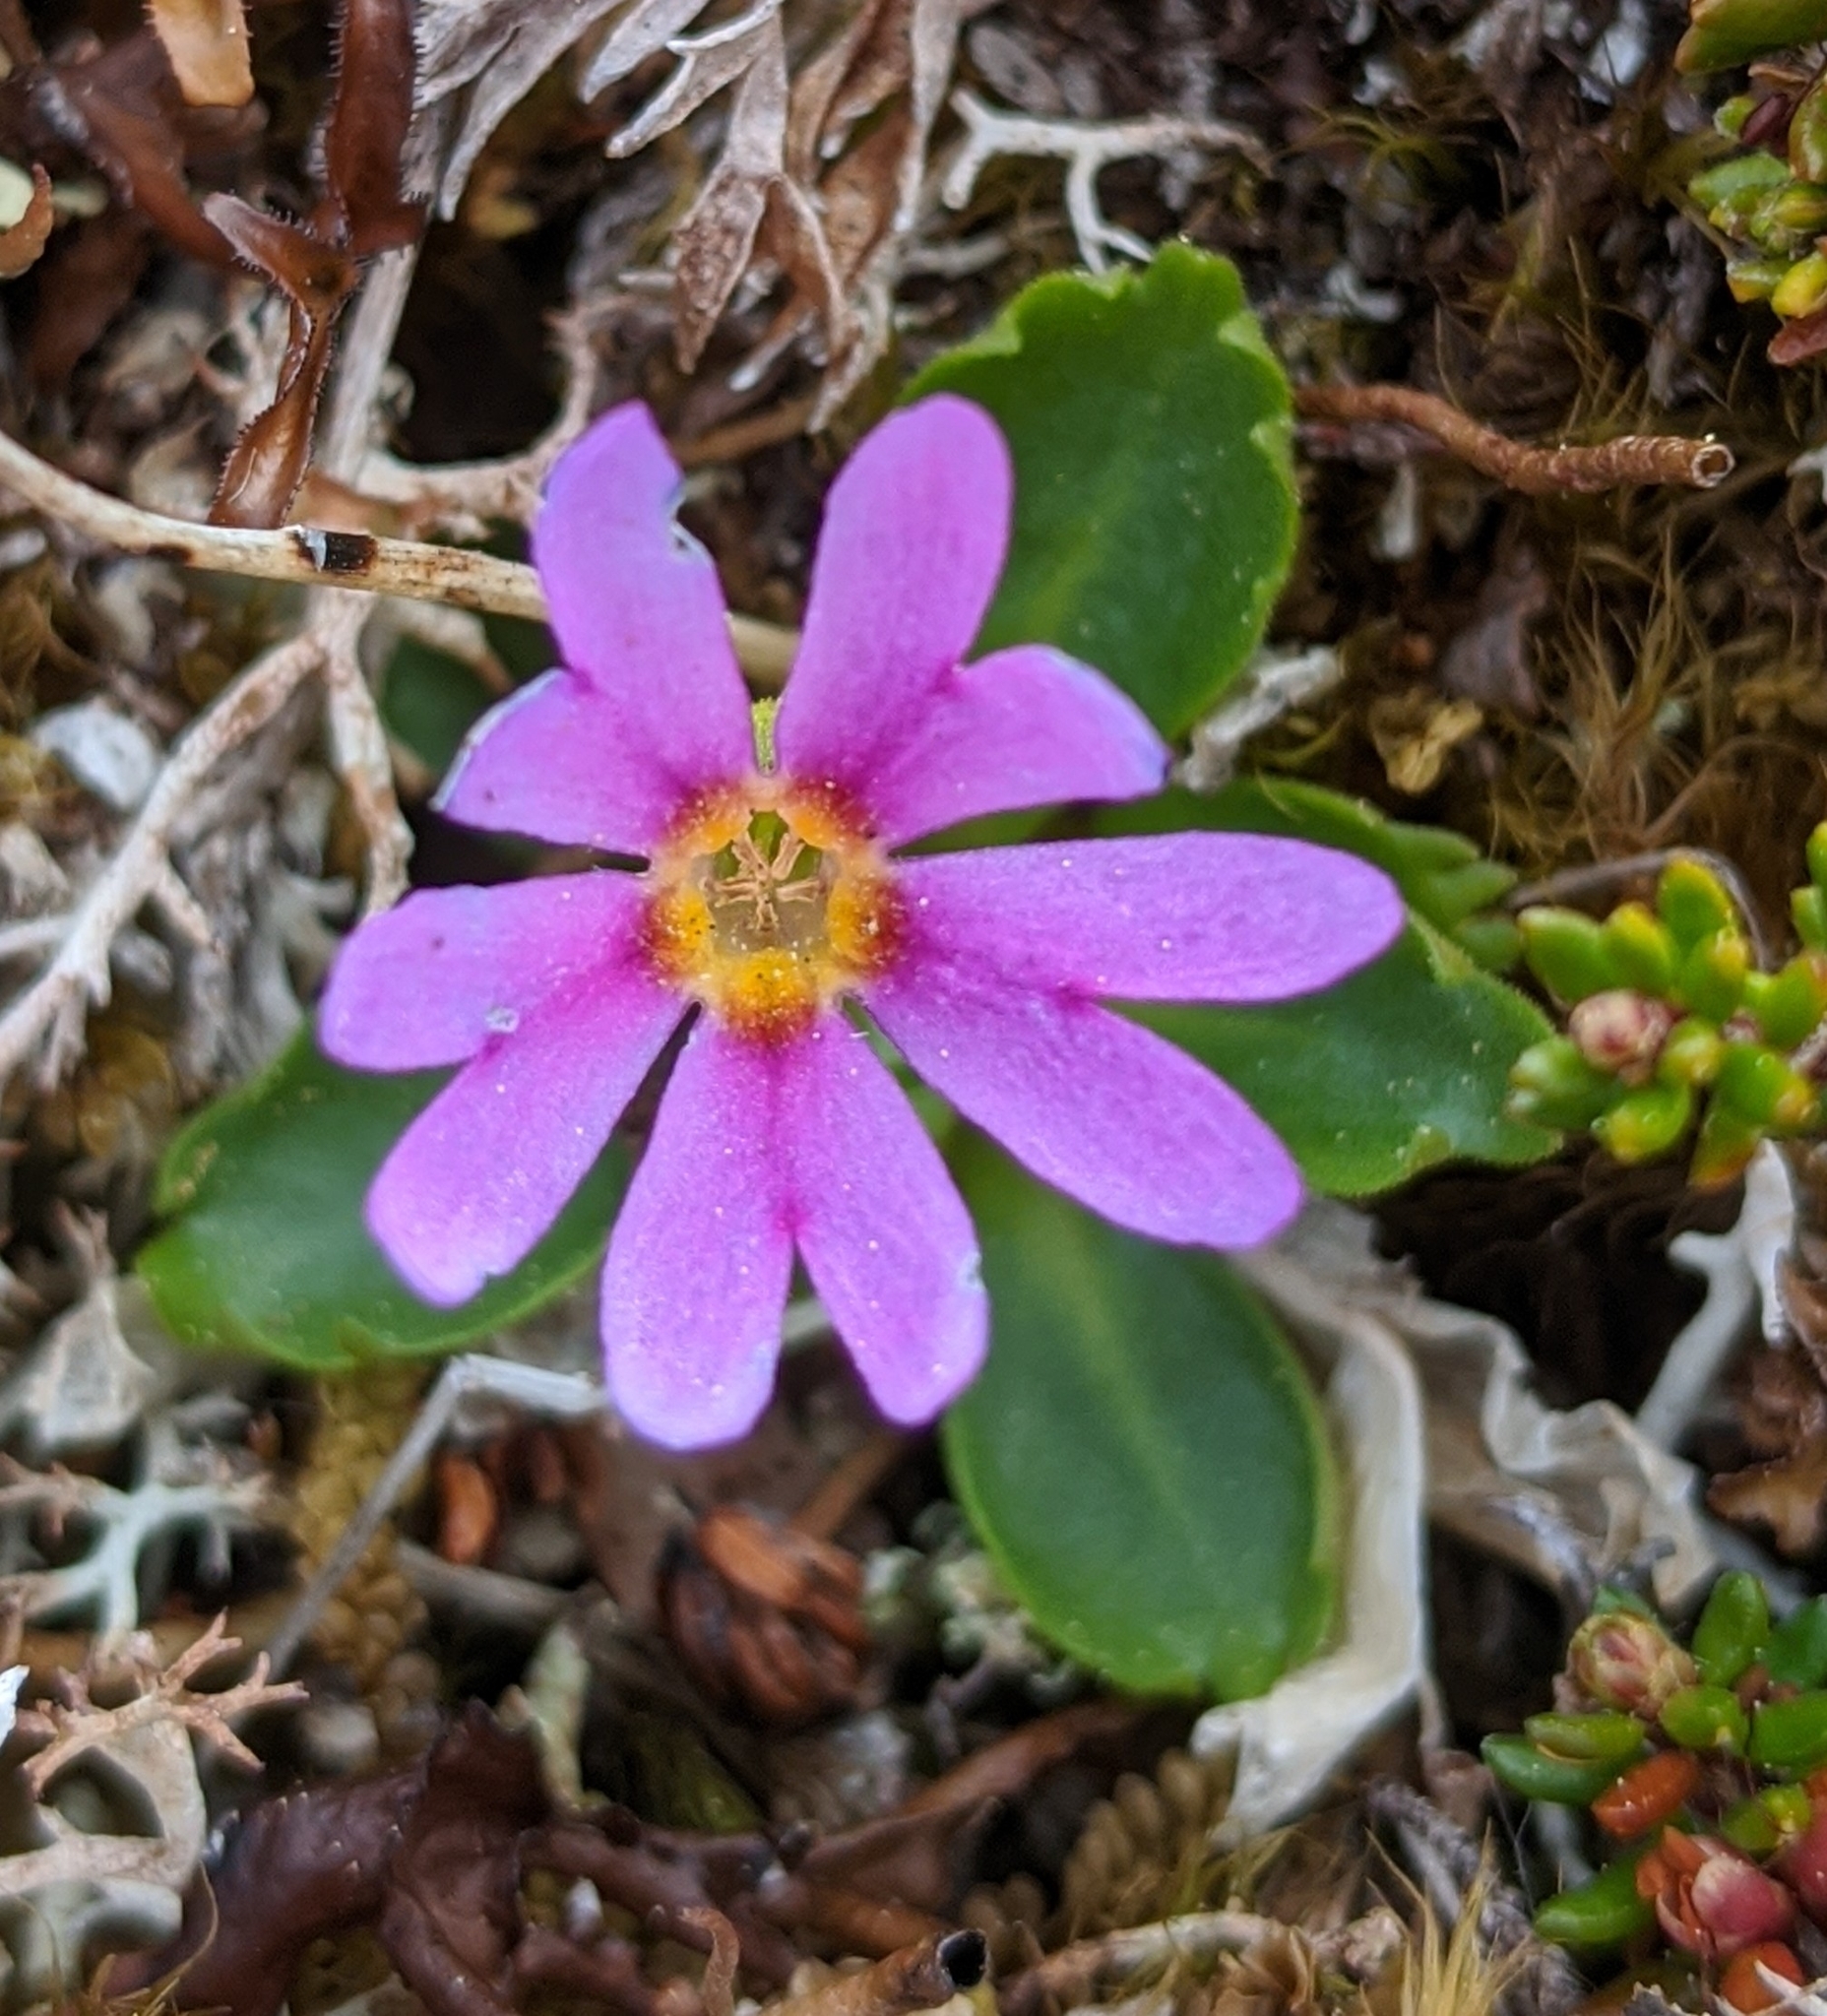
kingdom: Plantae
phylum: Tracheophyta
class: Magnoliopsida
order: Ericales
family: Primulaceae
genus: Primula
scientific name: Primula cuneifolia
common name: Wedge-leaved primrose
